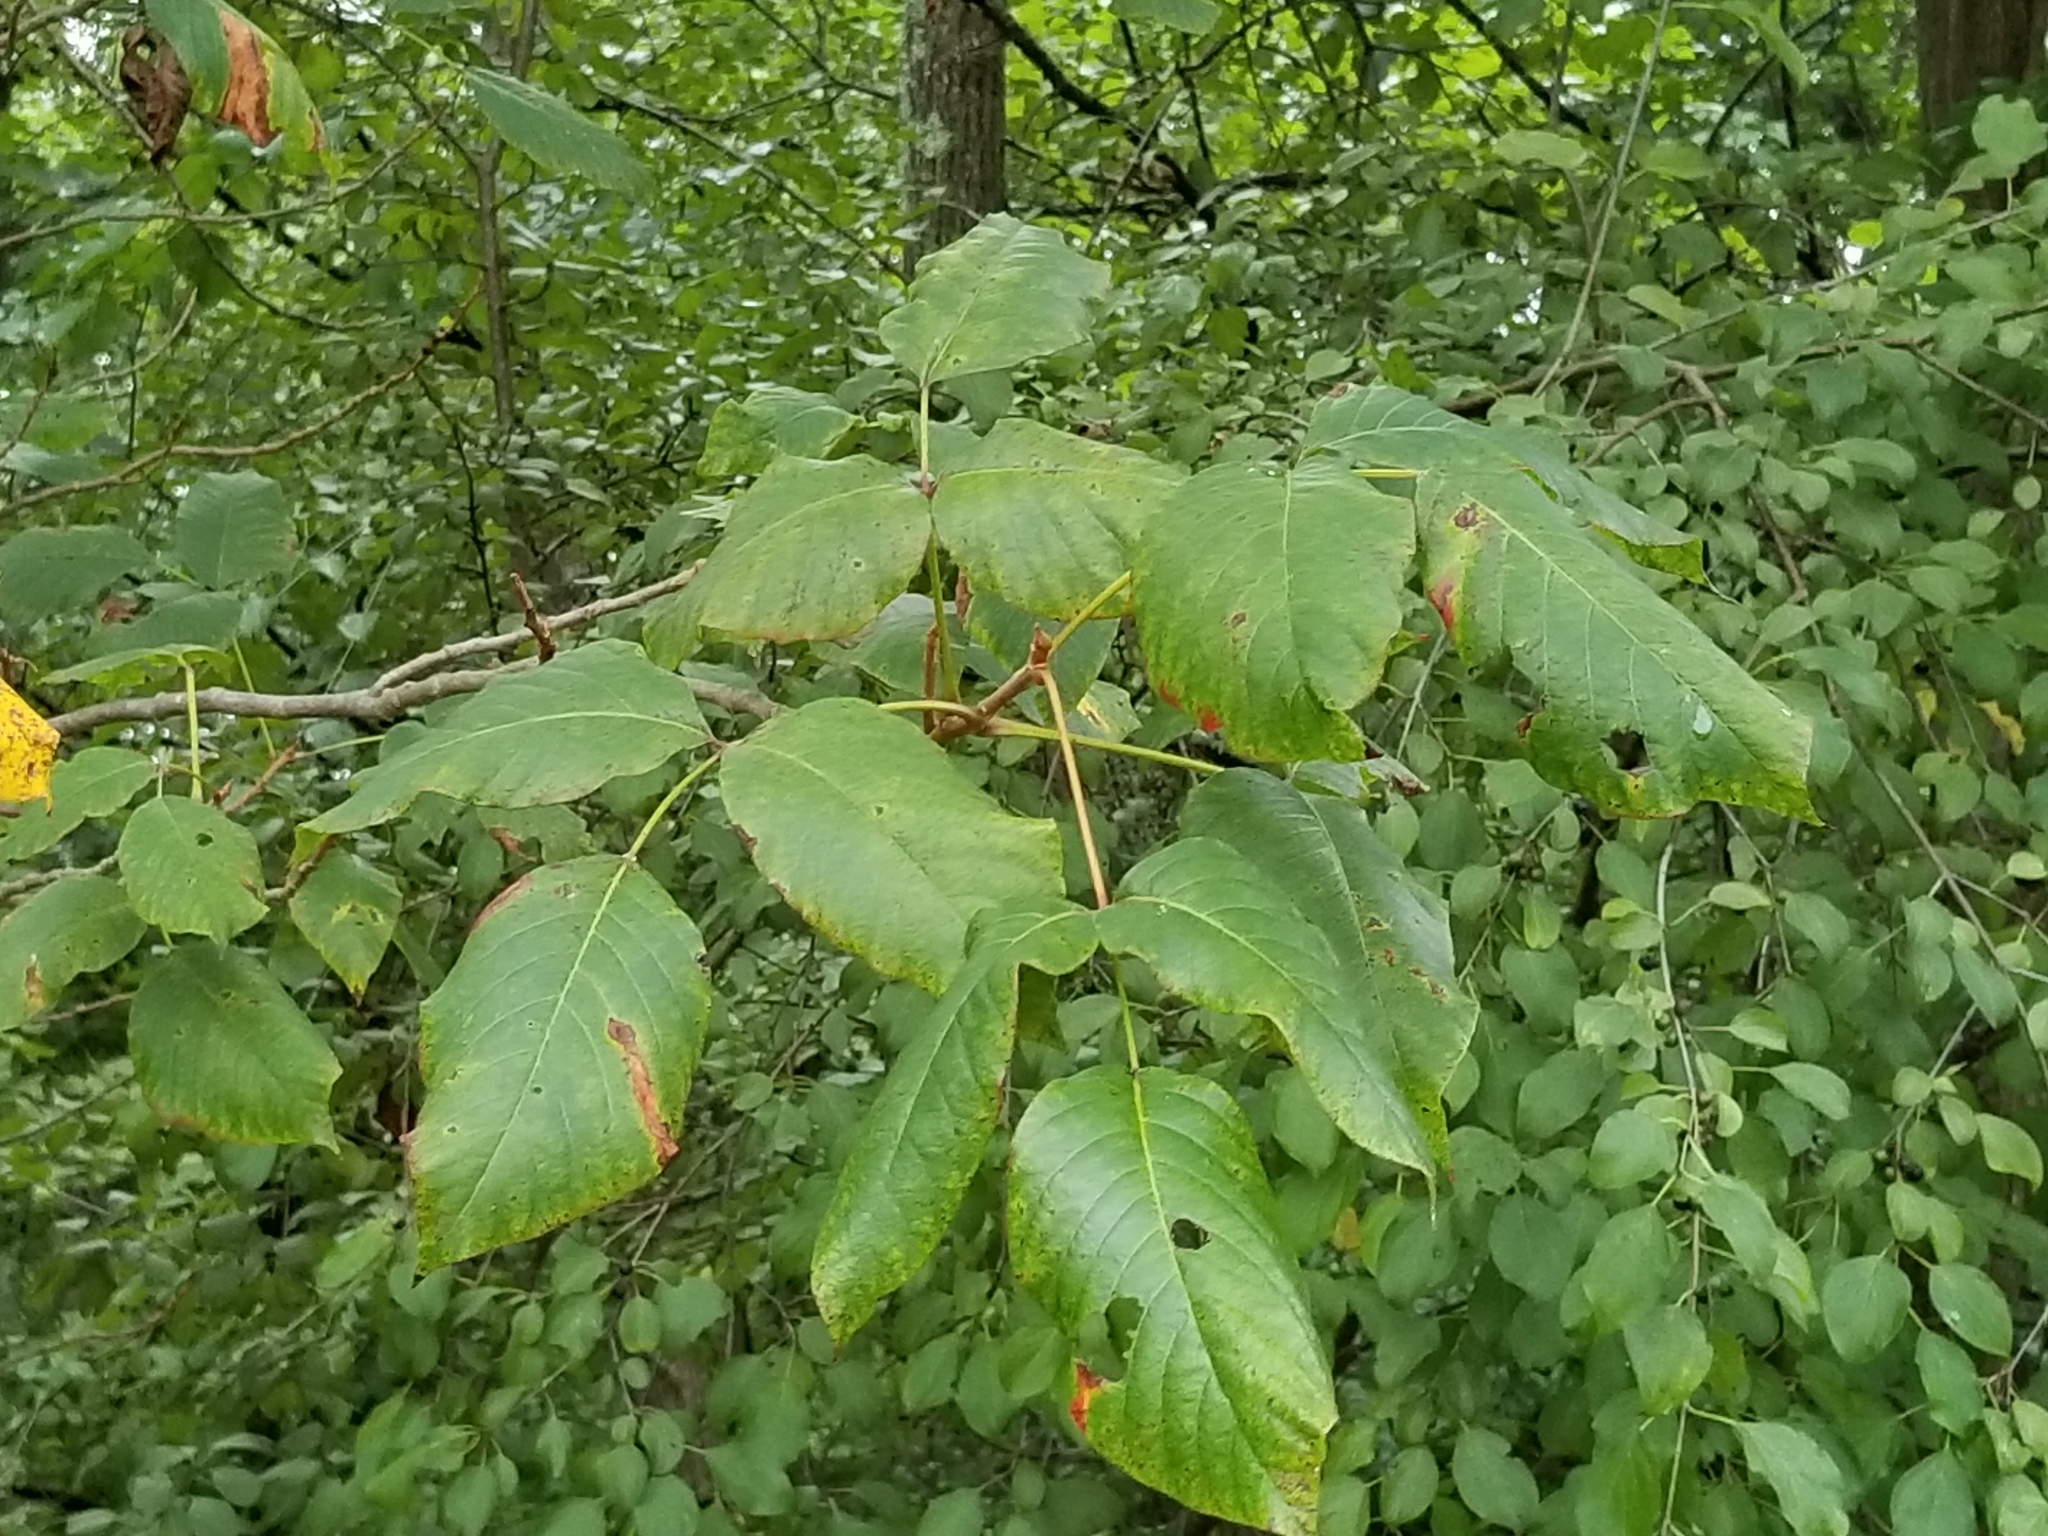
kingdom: Plantae
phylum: Tracheophyta
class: Magnoliopsida
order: Sapindales
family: Anacardiaceae
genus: Toxicodendron
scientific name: Toxicodendron radicans
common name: Poison ivy
